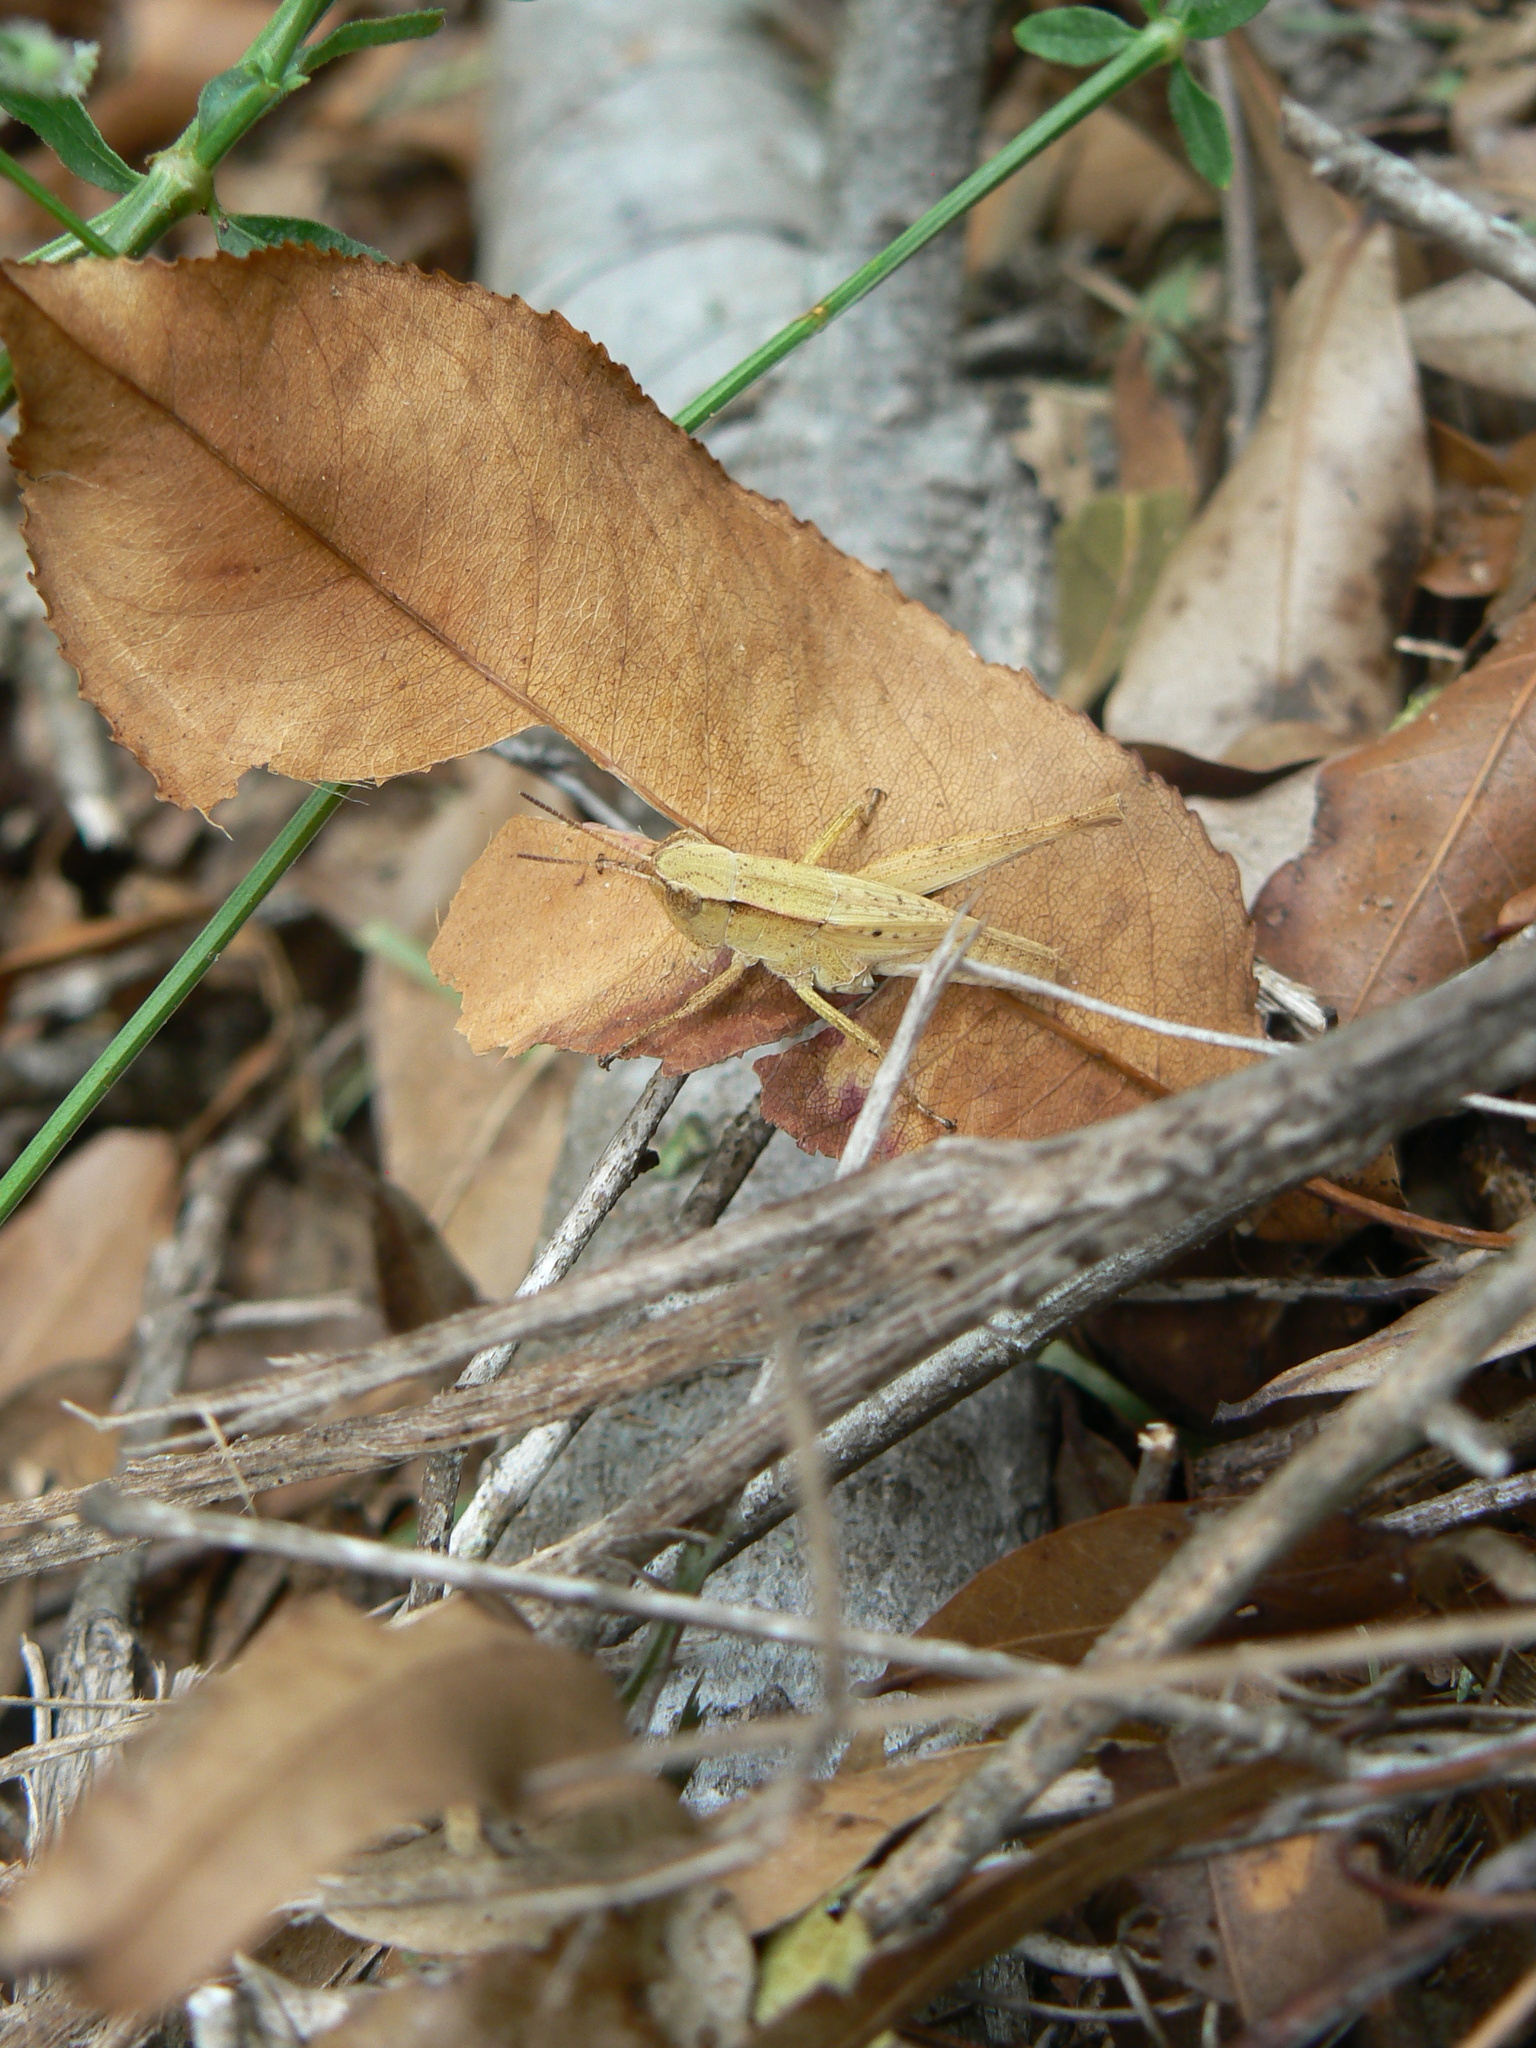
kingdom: Animalia
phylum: Arthropoda
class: Insecta
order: Orthoptera
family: Acrididae
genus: Dichromorpha
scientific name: Dichromorpha viridis
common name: Short-winged green grasshopper
